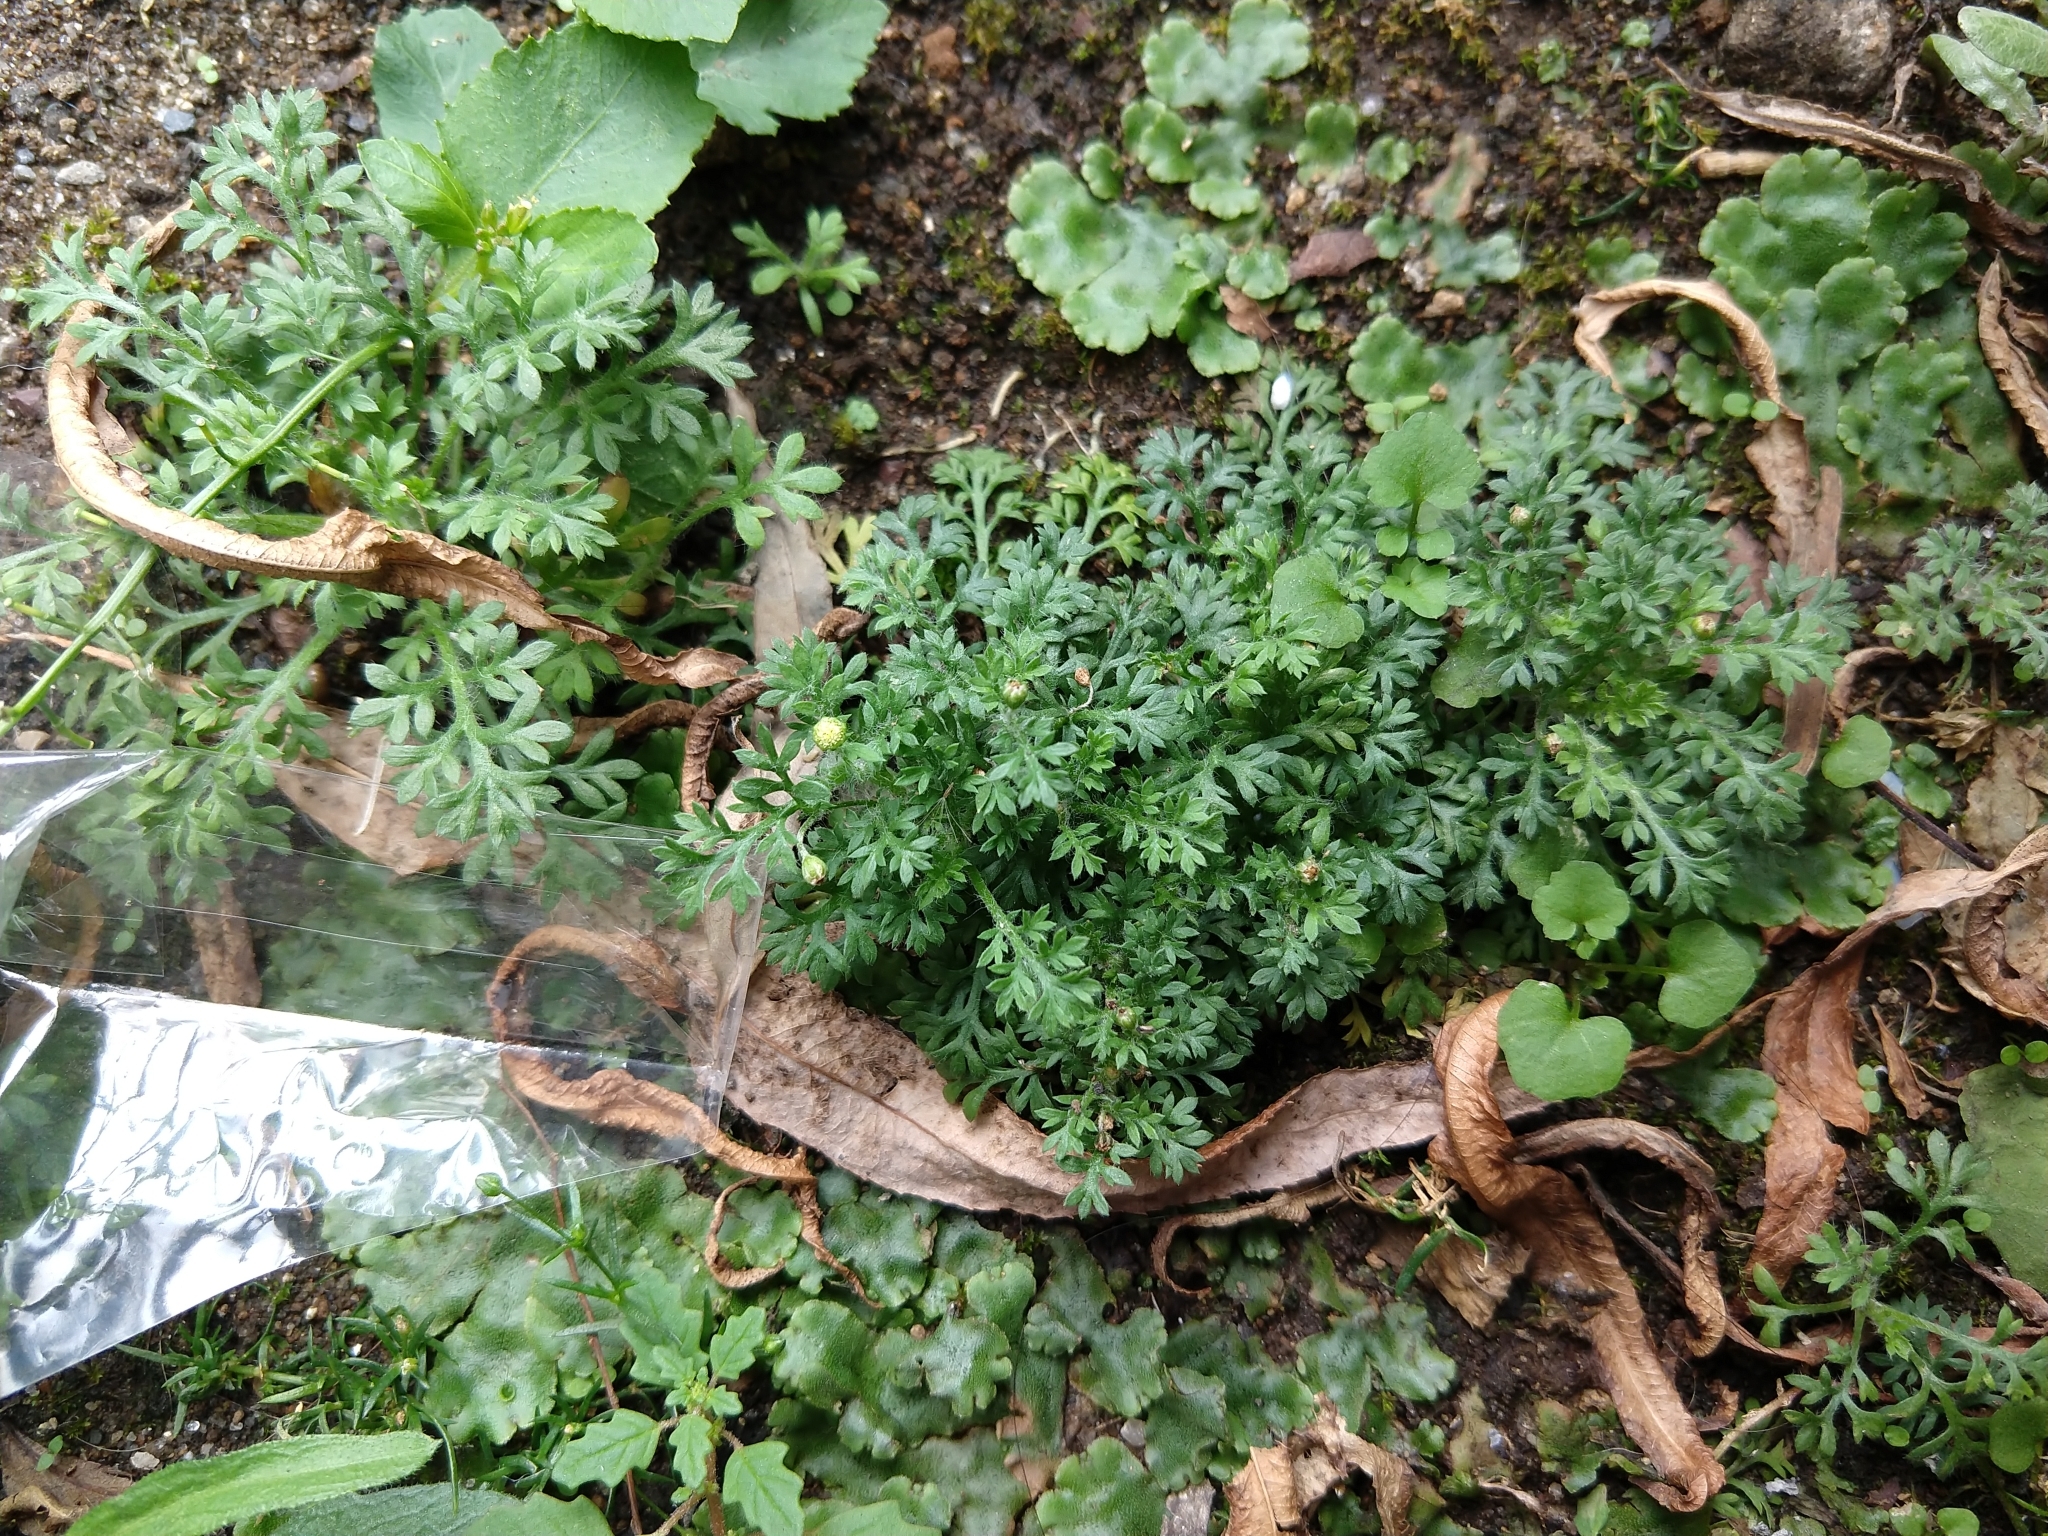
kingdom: Plantae
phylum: Tracheophyta
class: Magnoliopsida
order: Asterales
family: Asteraceae
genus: Cotula
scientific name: Cotula australis
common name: Australian waterbuttons
